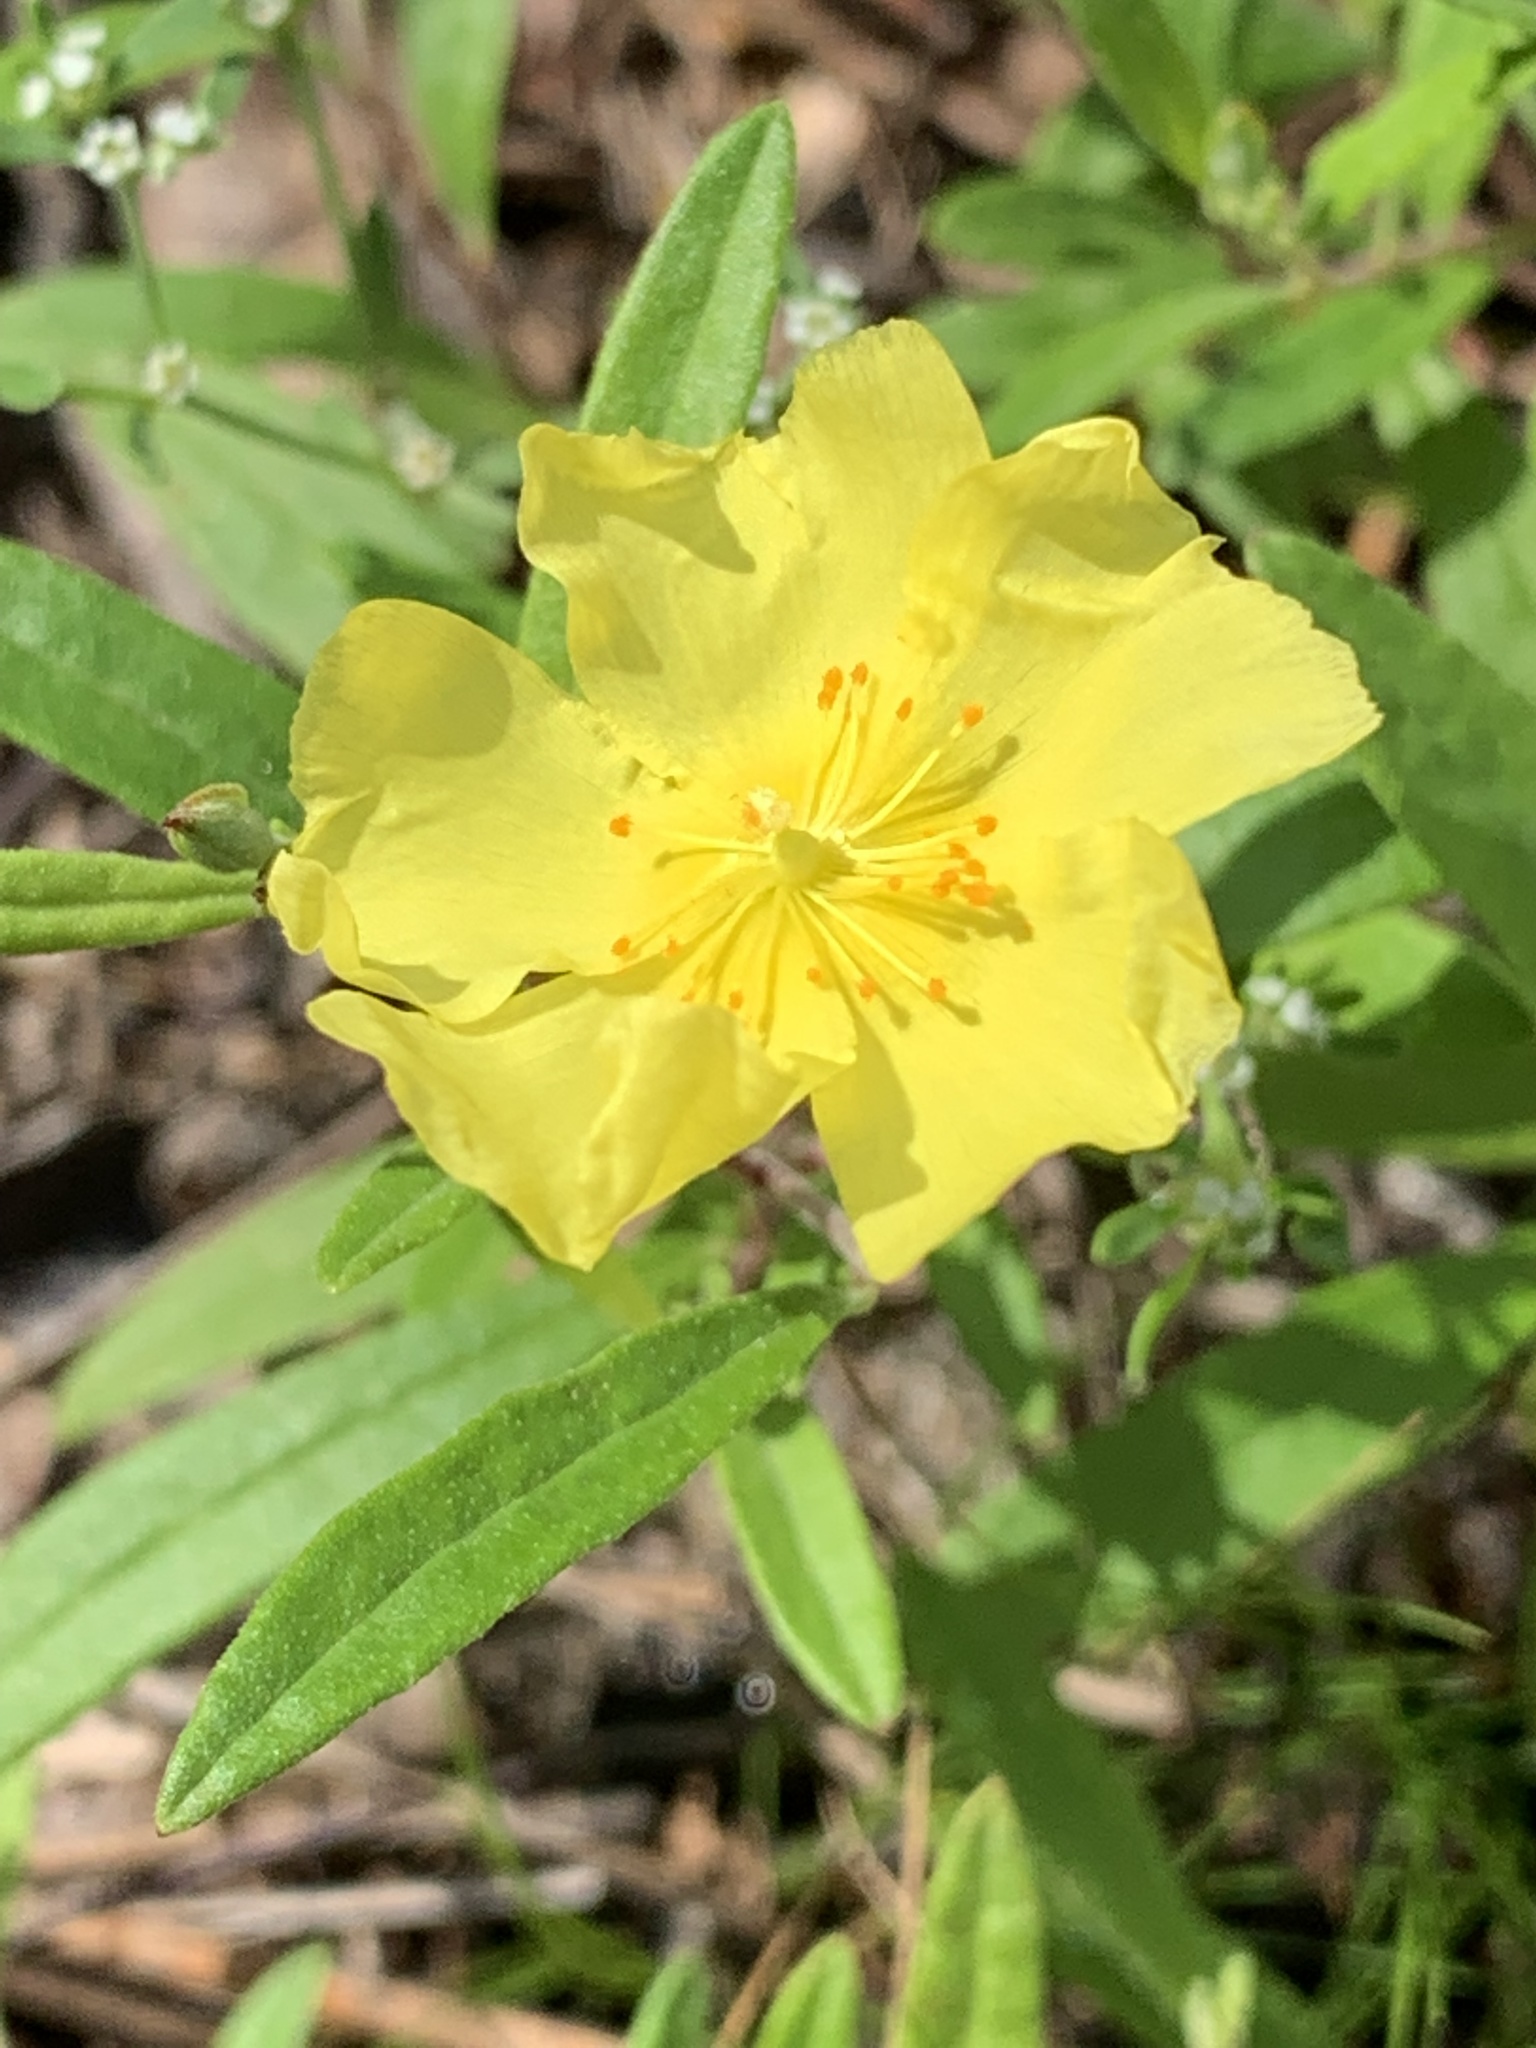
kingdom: Plantae
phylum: Tracheophyta
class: Magnoliopsida
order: Malvales
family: Cistaceae
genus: Crocanthemum
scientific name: Crocanthemum georgianum
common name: Georgia frostweed
